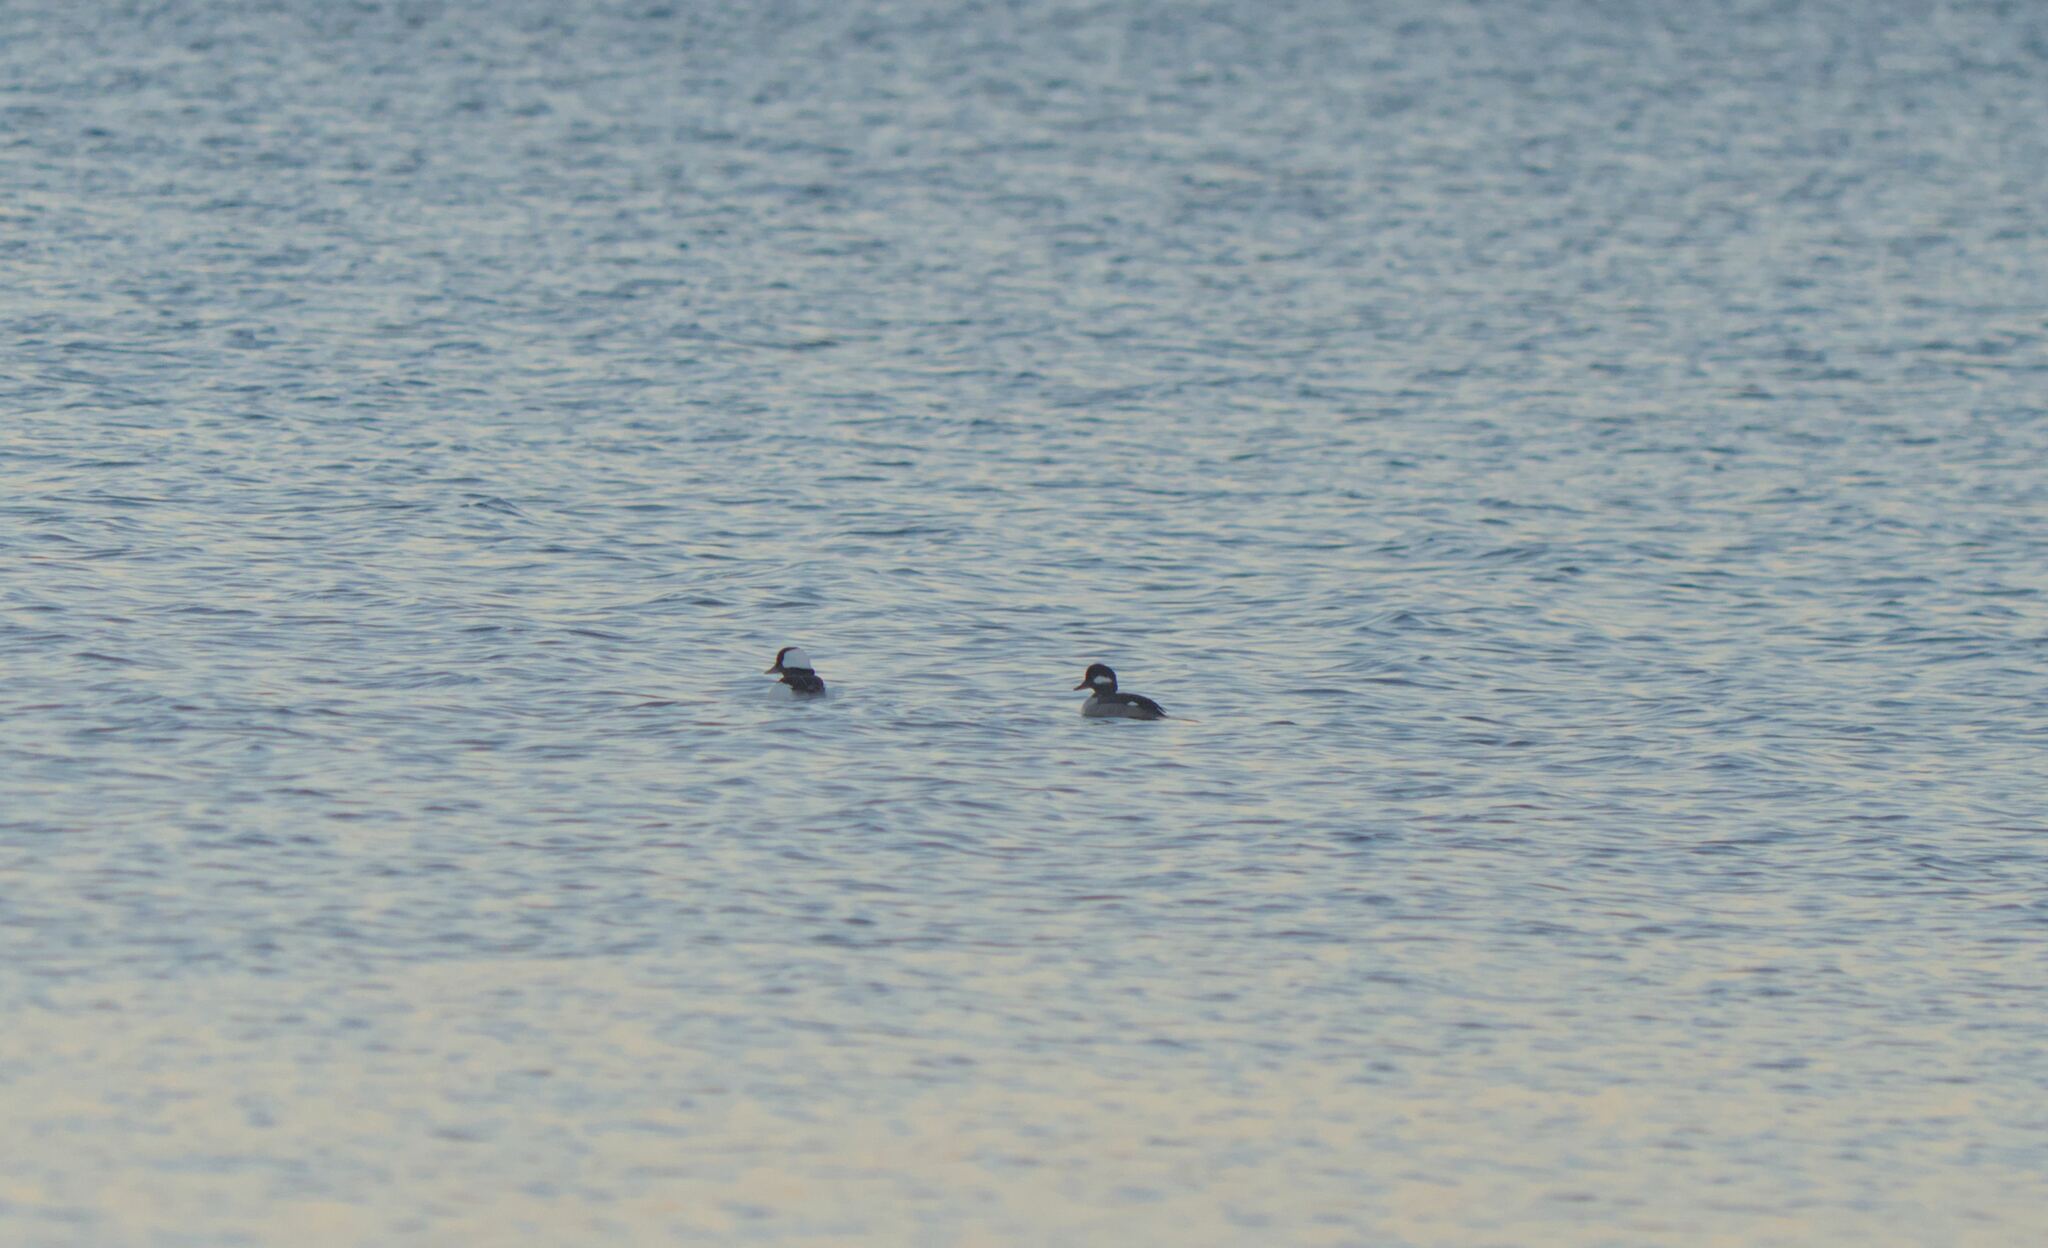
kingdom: Animalia
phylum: Chordata
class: Aves
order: Anseriformes
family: Anatidae
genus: Bucephala
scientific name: Bucephala albeola
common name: Bufflehead
